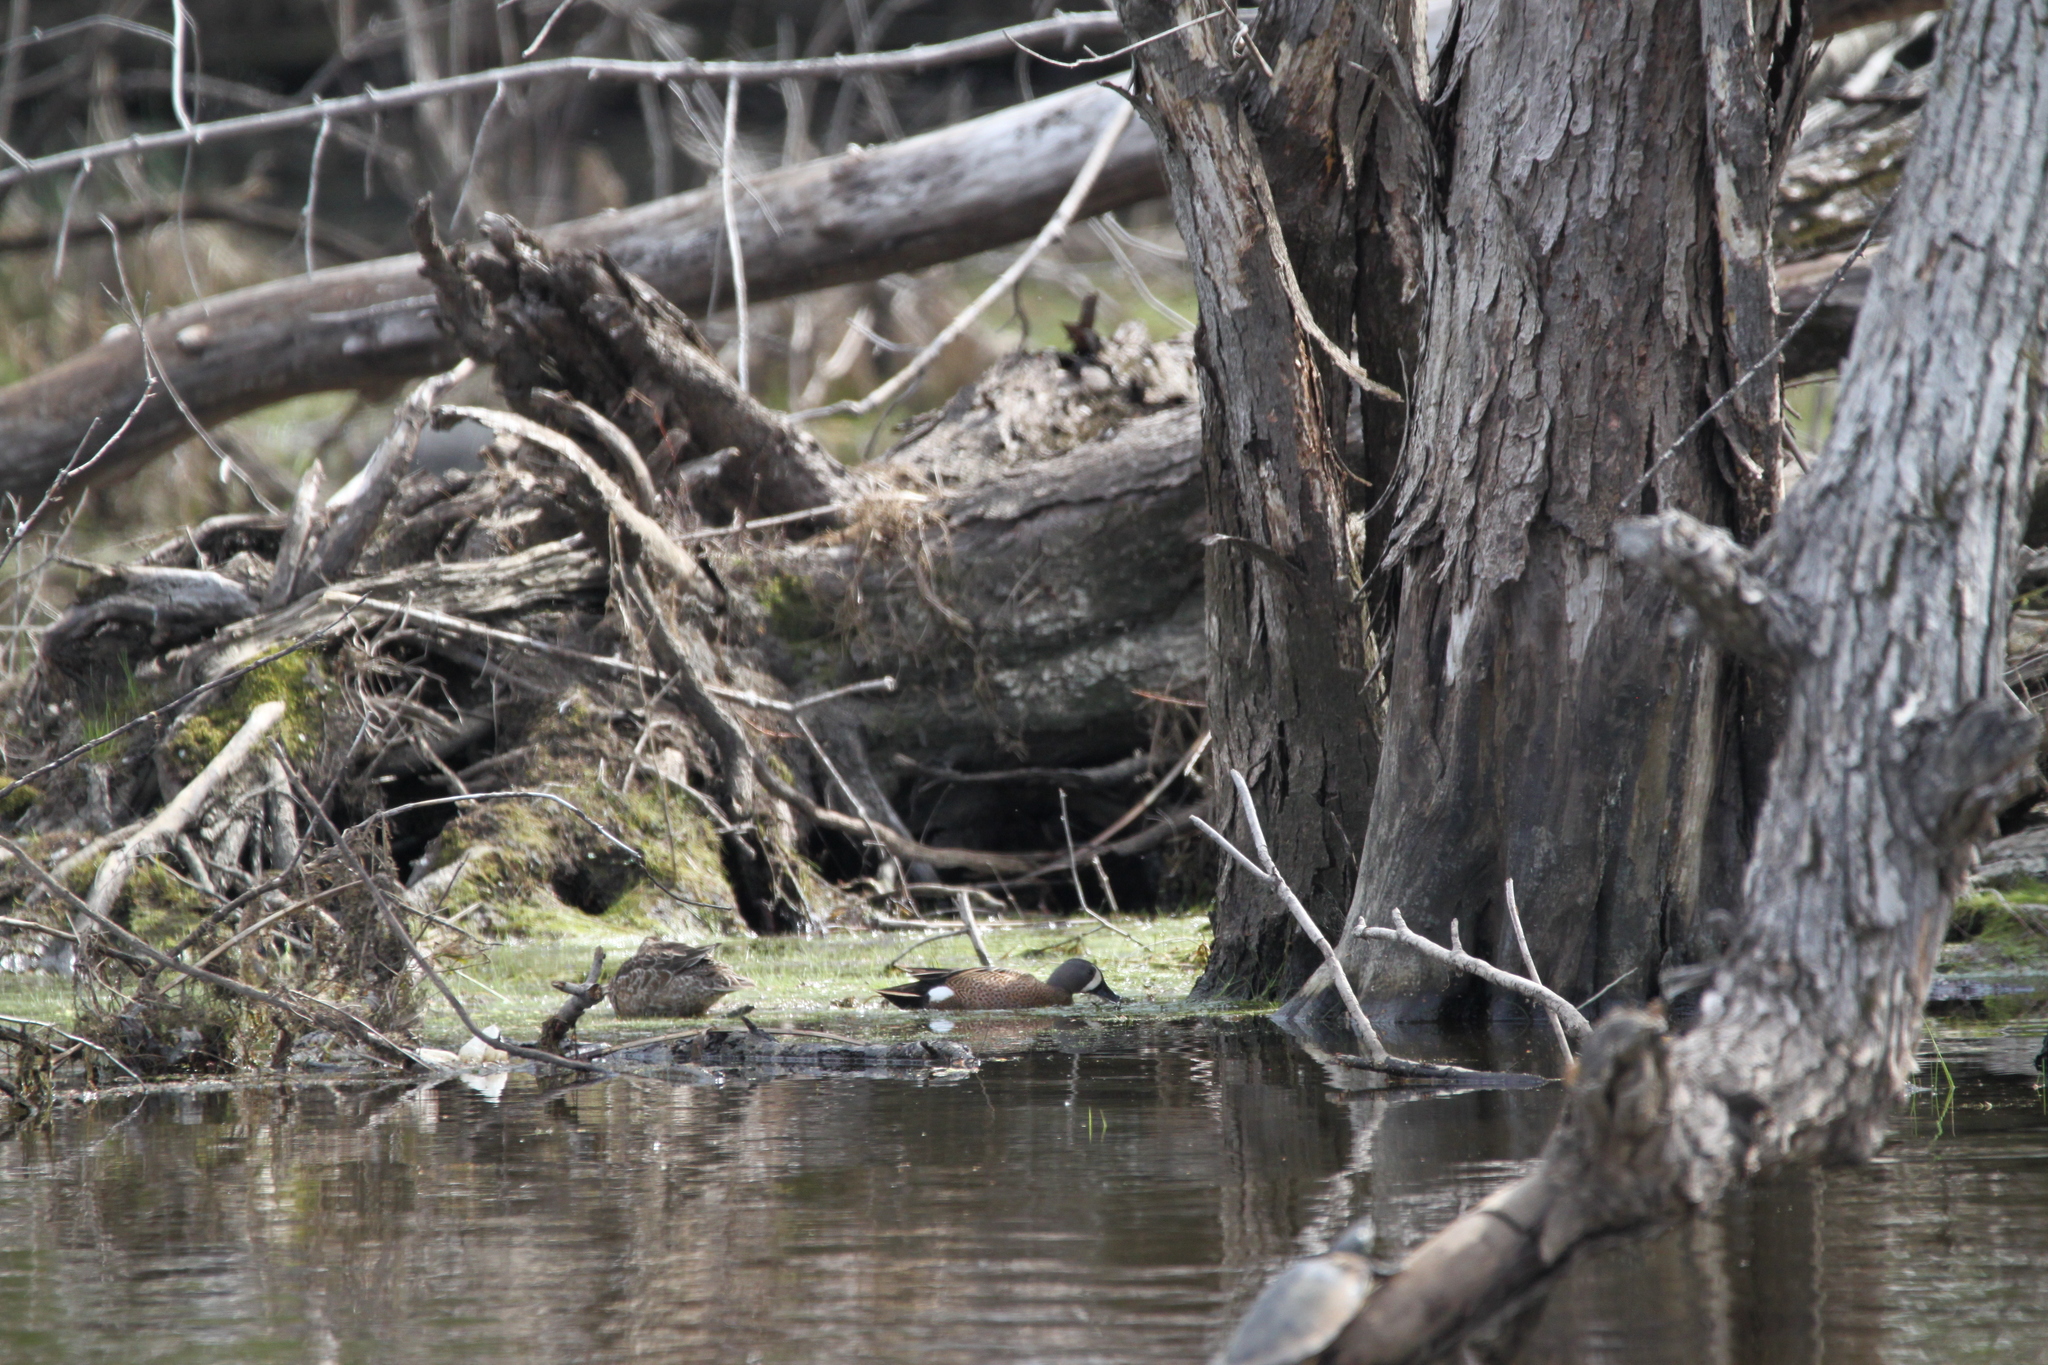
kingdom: Animalia
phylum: Chordata
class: Aves
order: Anseriformes
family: Anatidae
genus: Spatula
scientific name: Spatula discors
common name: Blue-winged teal
